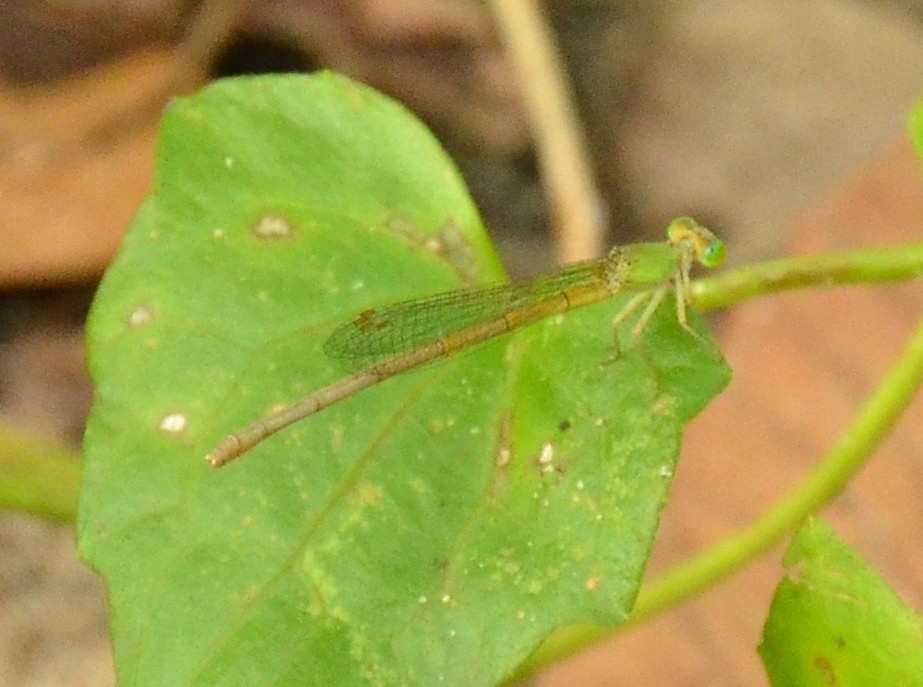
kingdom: Animalia
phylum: Arthropoda
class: Insecta
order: Odonata
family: Coenagrionidae
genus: Ceriagrion
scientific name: Ceriagrion coromandelianum
